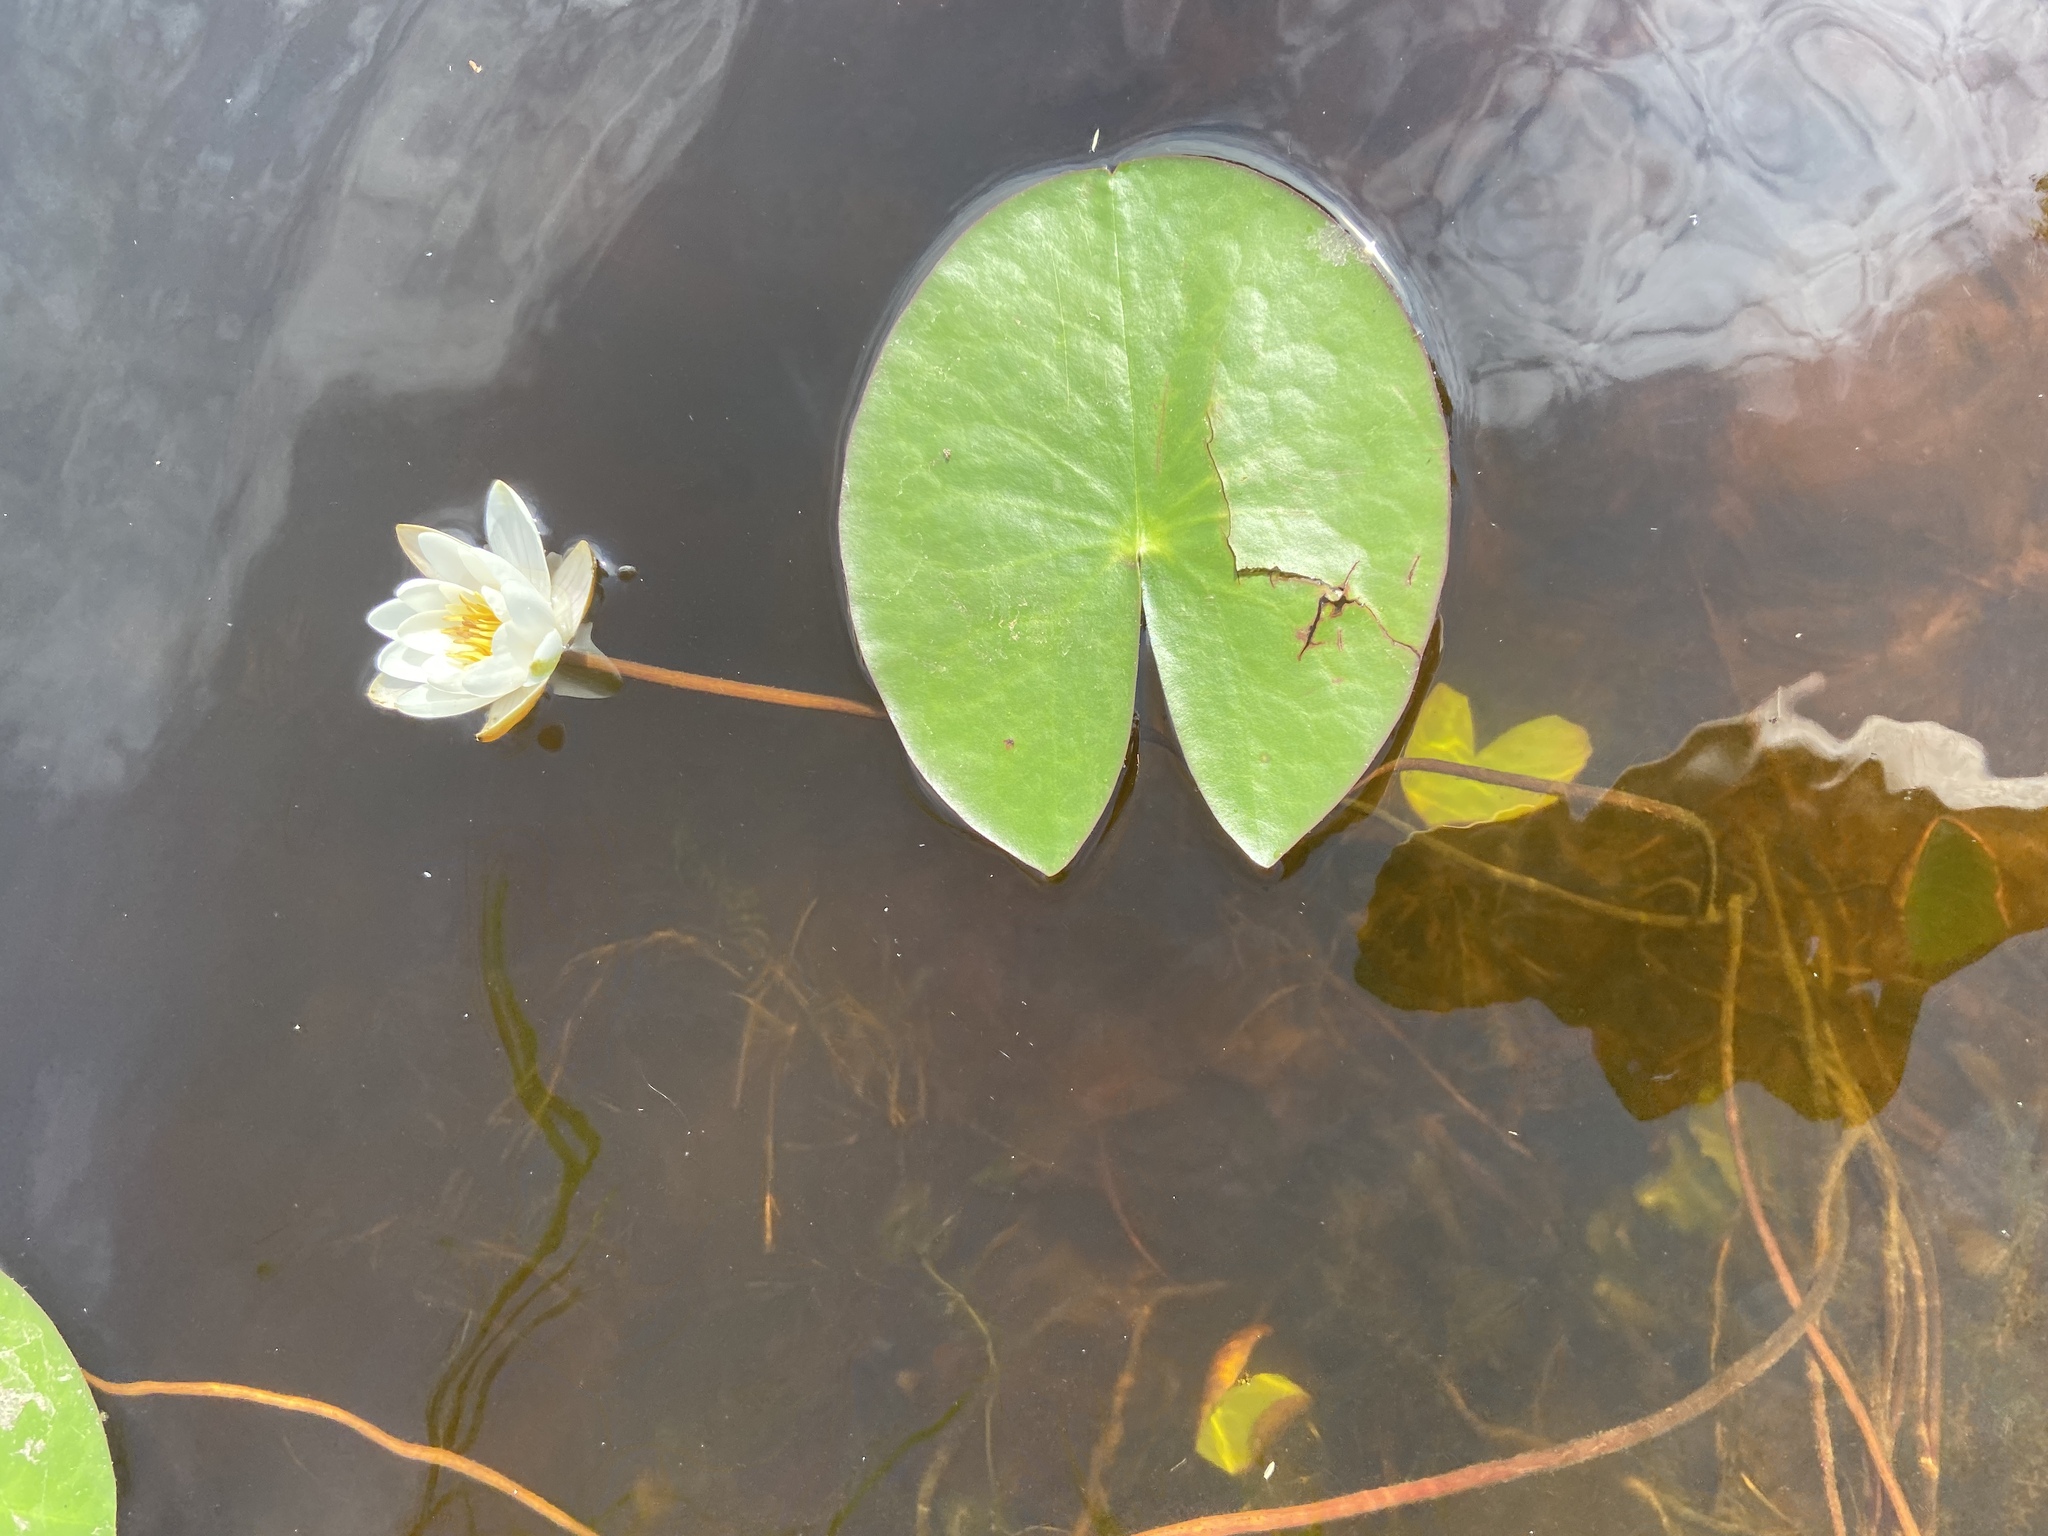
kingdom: Plantae
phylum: Tracheophyta
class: Magnoliopsida
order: Nymphaeales
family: Nymphaeaceae
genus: Nymphaea
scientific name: Nymphaea candida
